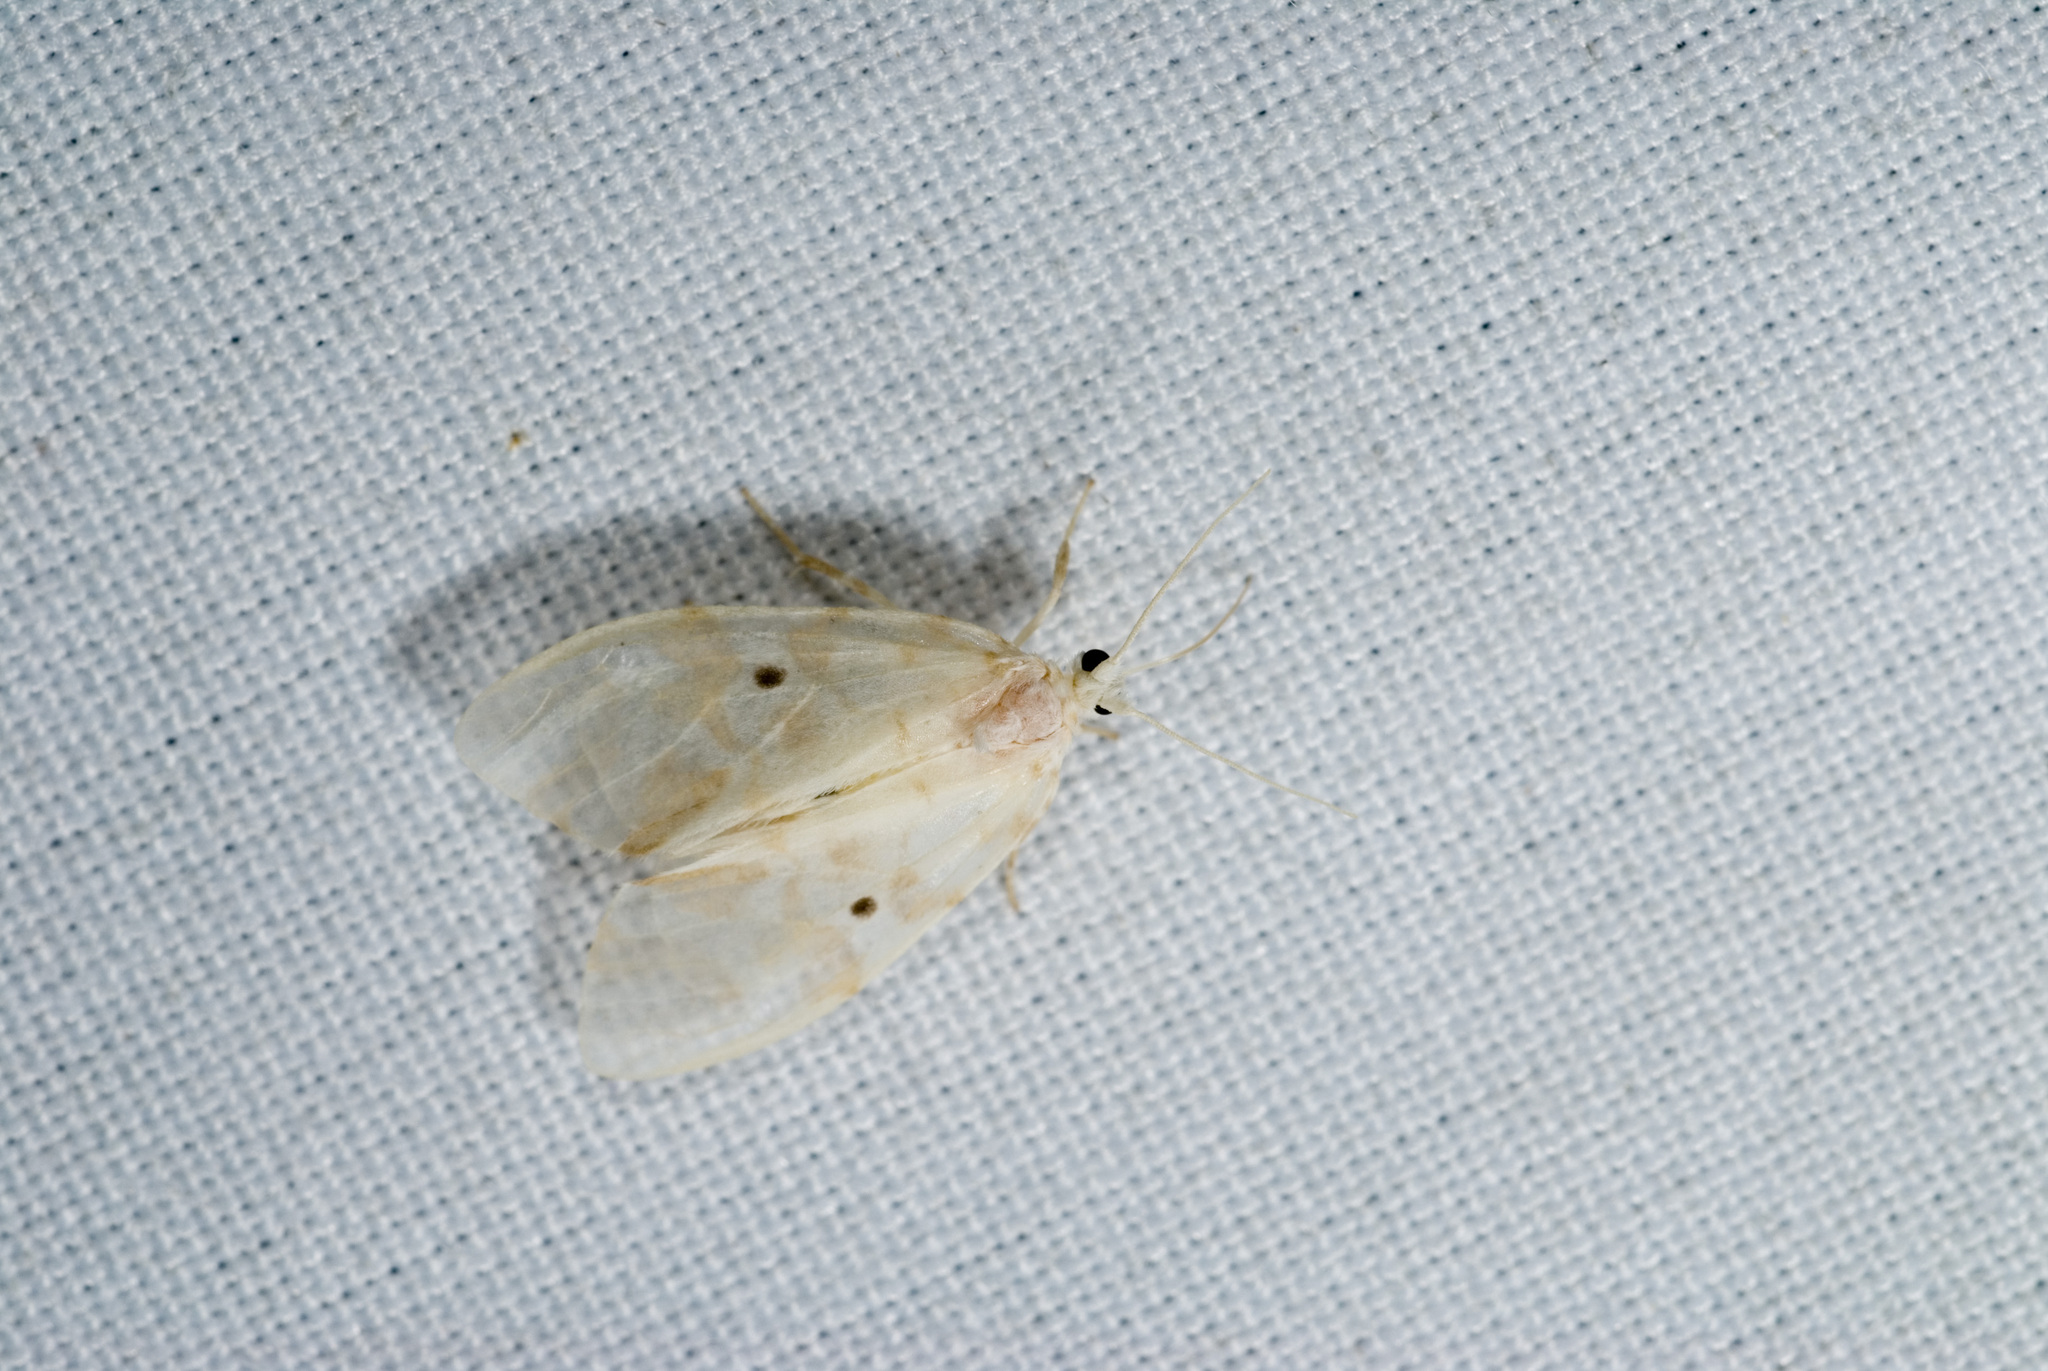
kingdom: Animalia
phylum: Arthropoda
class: Insecta
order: Lepidoptera
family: Erebidae
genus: Nudaria
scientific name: Nudaria ranruna
